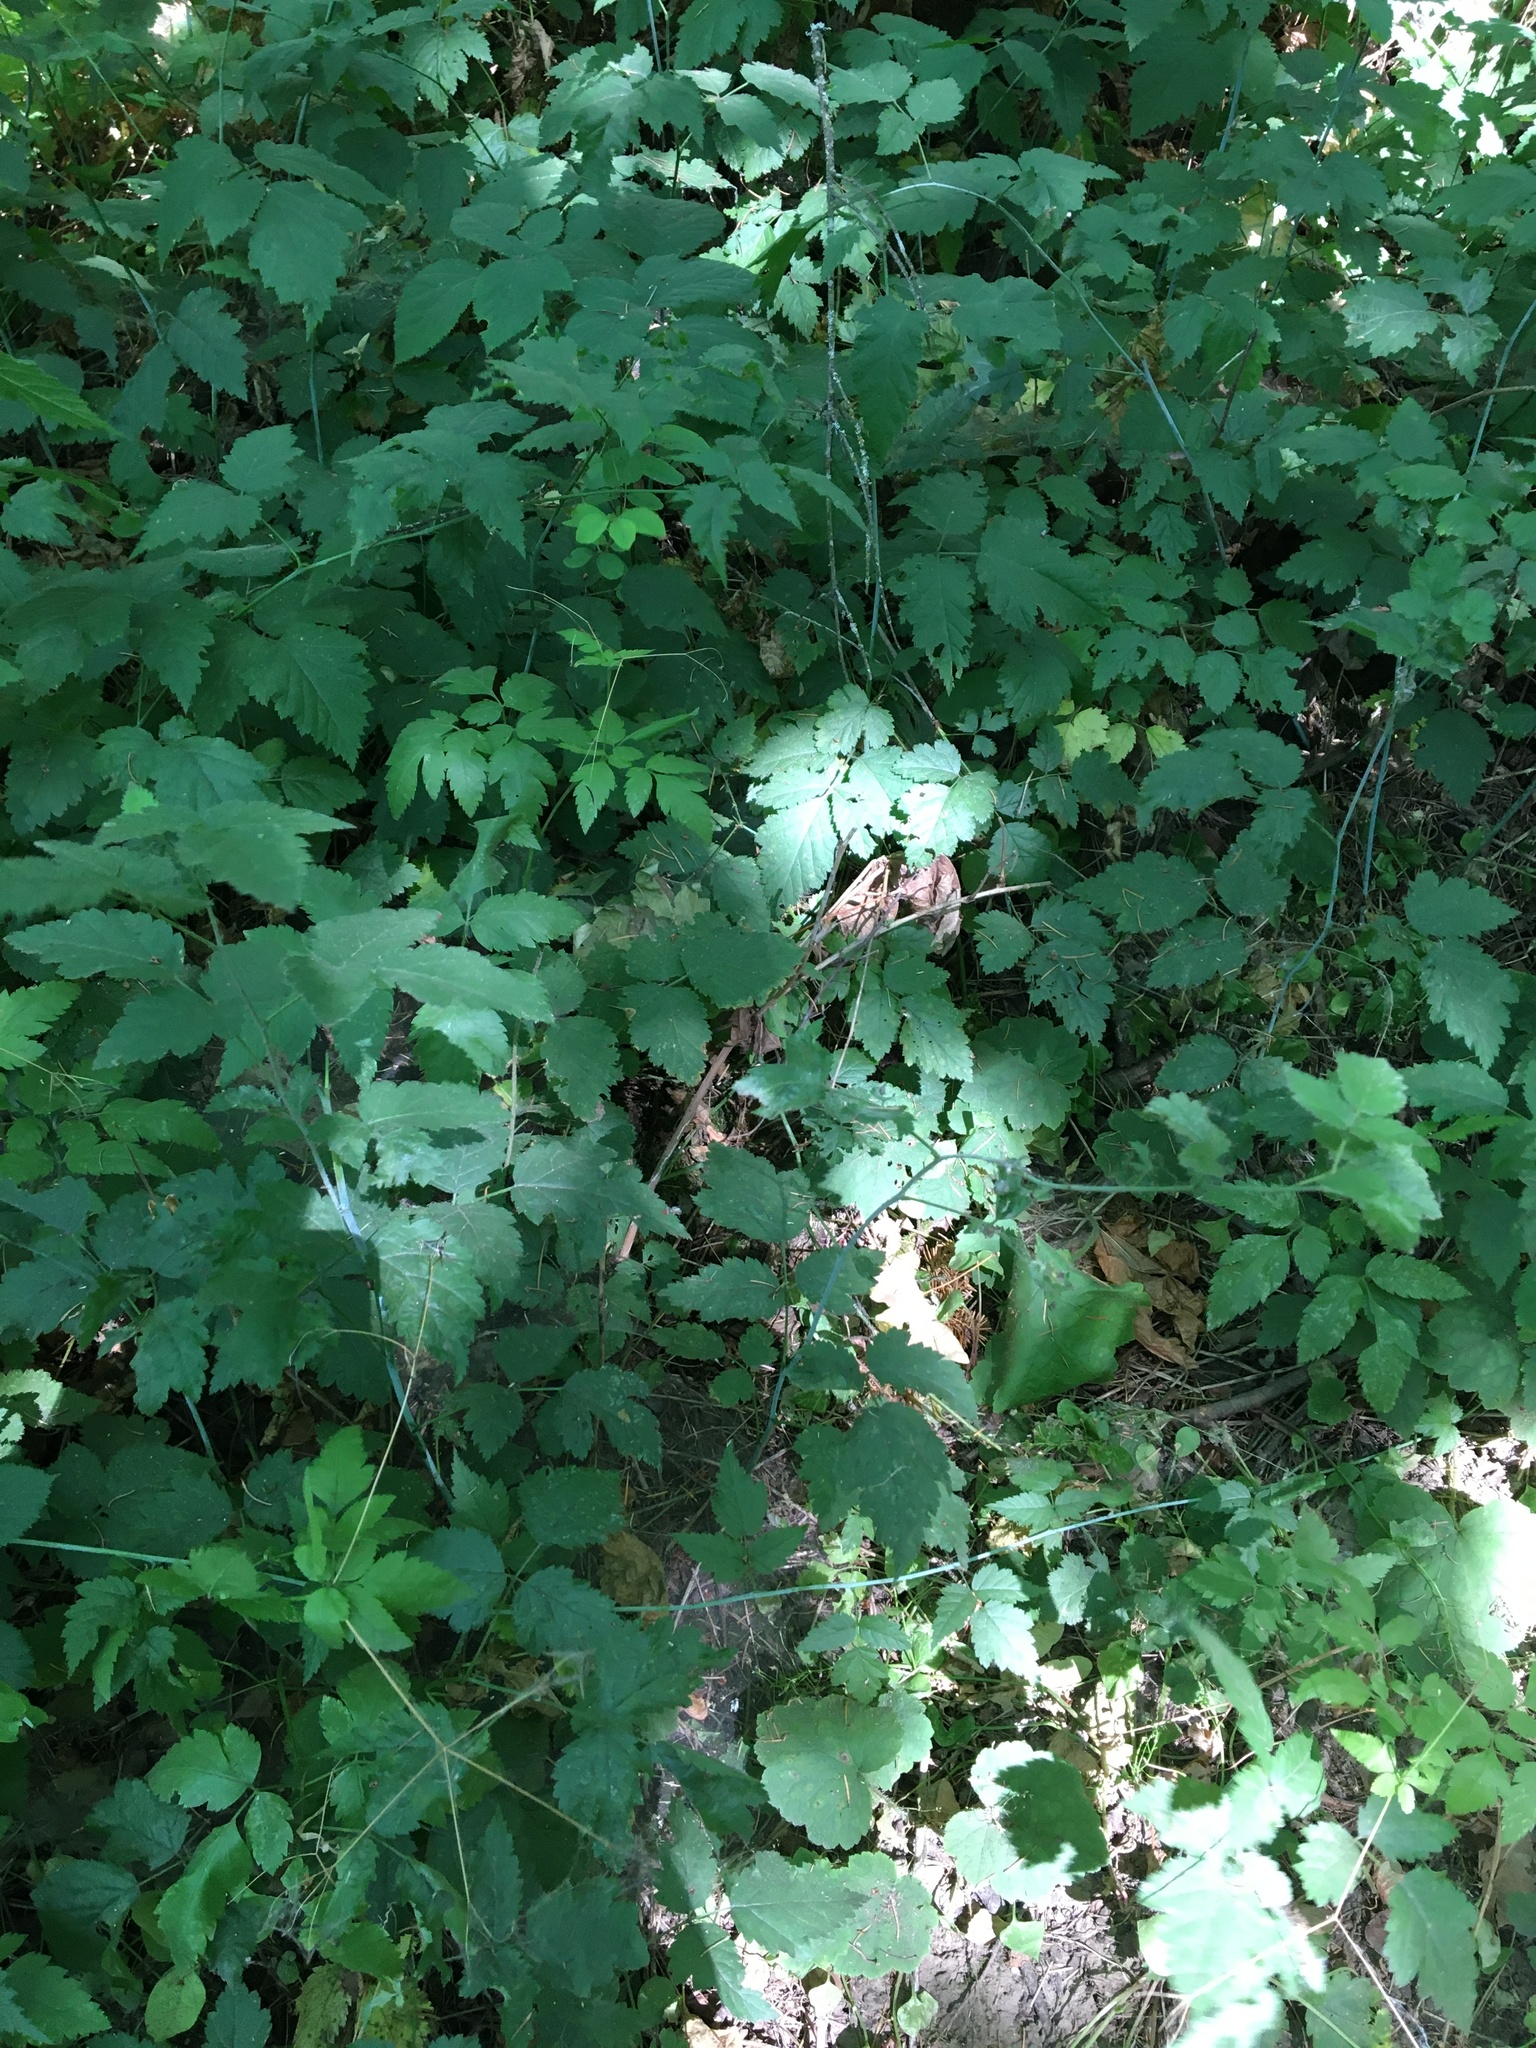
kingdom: Plantae
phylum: Tracheophyta
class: Magnoliopsida
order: Rosales
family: Rosaceae
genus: Rubus
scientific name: Rubus leucodermis
